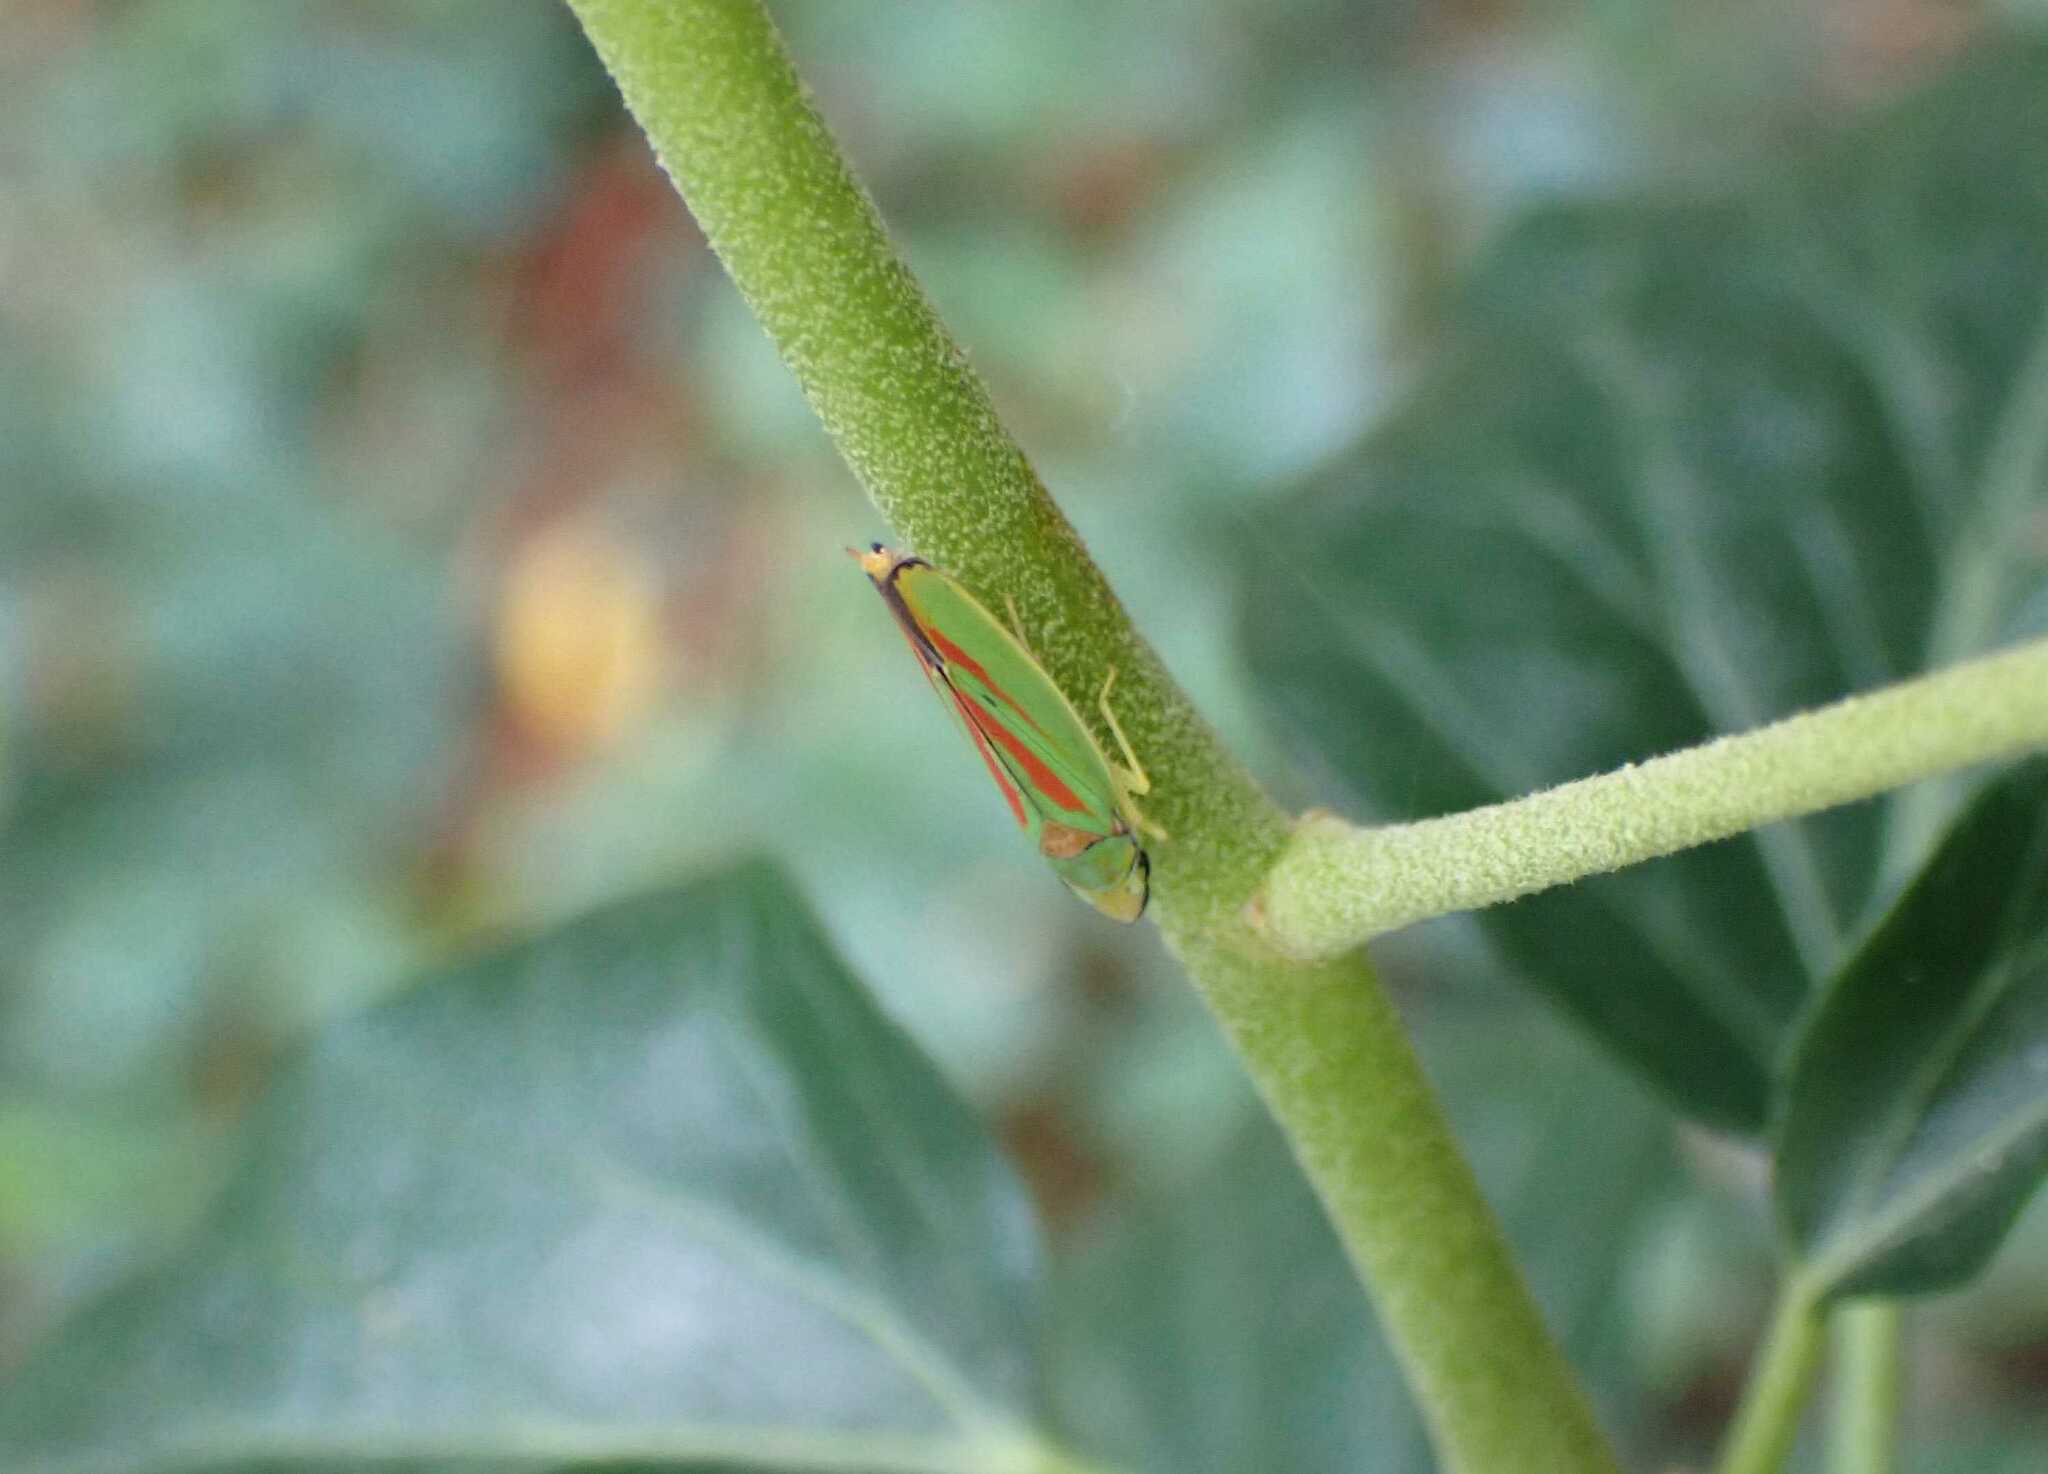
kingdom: Animalia
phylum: Arthropoda
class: Insecta
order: Hemiptera
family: Cicadellidae
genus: Graphocephala
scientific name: Graphocephala fennahi
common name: Rhododendron leafhopper
